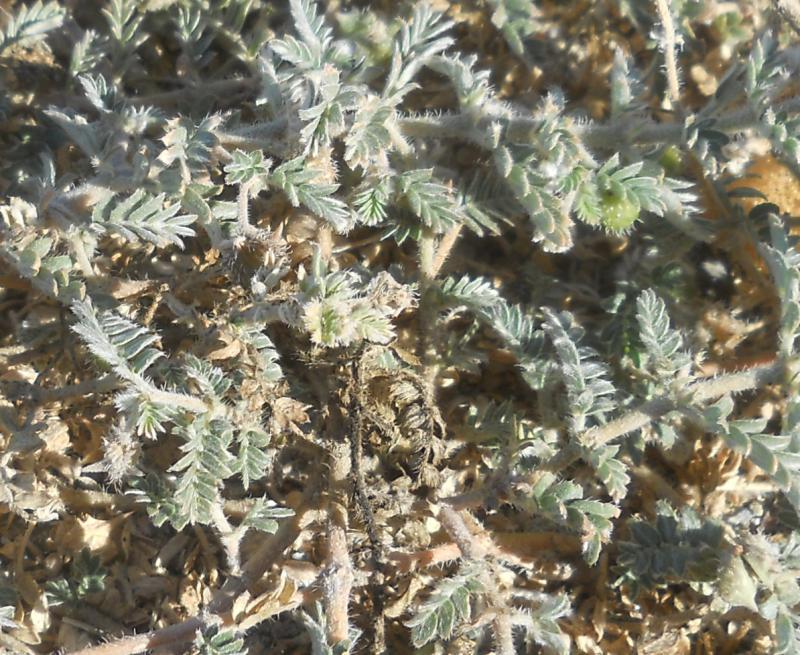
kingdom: Plantae
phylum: Tracheophyta
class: Magnoliopsida
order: Zygophyllales
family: Zygophyllaceae
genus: Tribulus
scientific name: Tribulus terrestris
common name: Puncturevine
